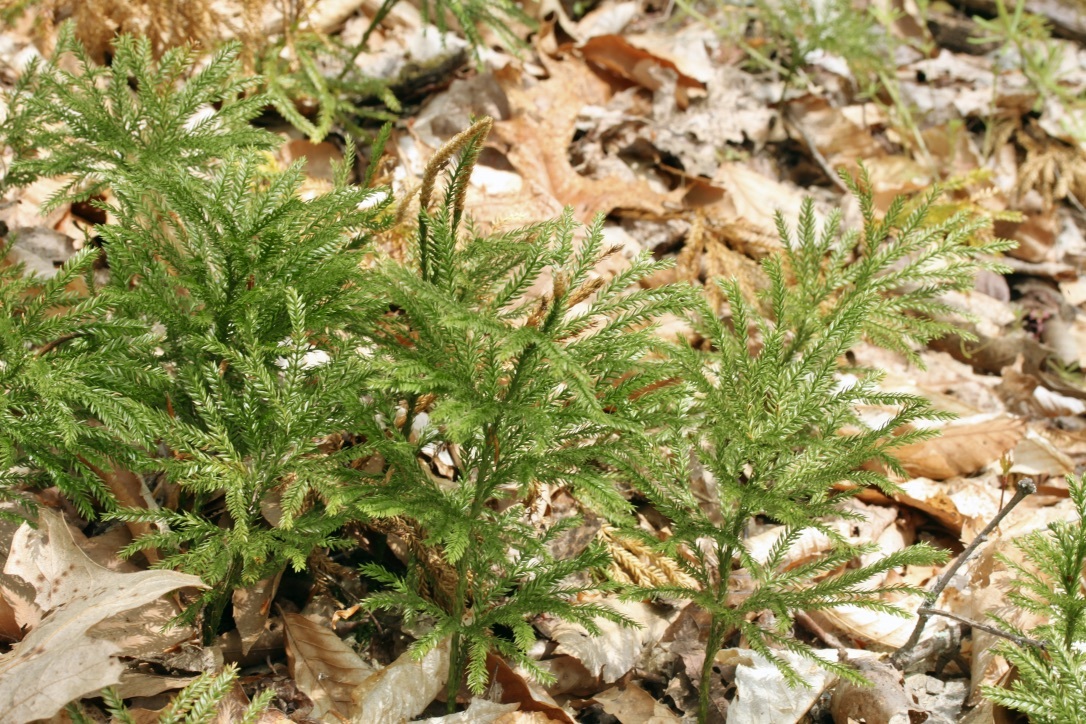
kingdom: Plantae
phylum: Tracheophyta
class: Lycopodiopsida
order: Lycopodiales
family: Lycopodiaceae
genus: Dendrolycopodium
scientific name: Dendrolycopodium obscurum
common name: Common ground-pine
